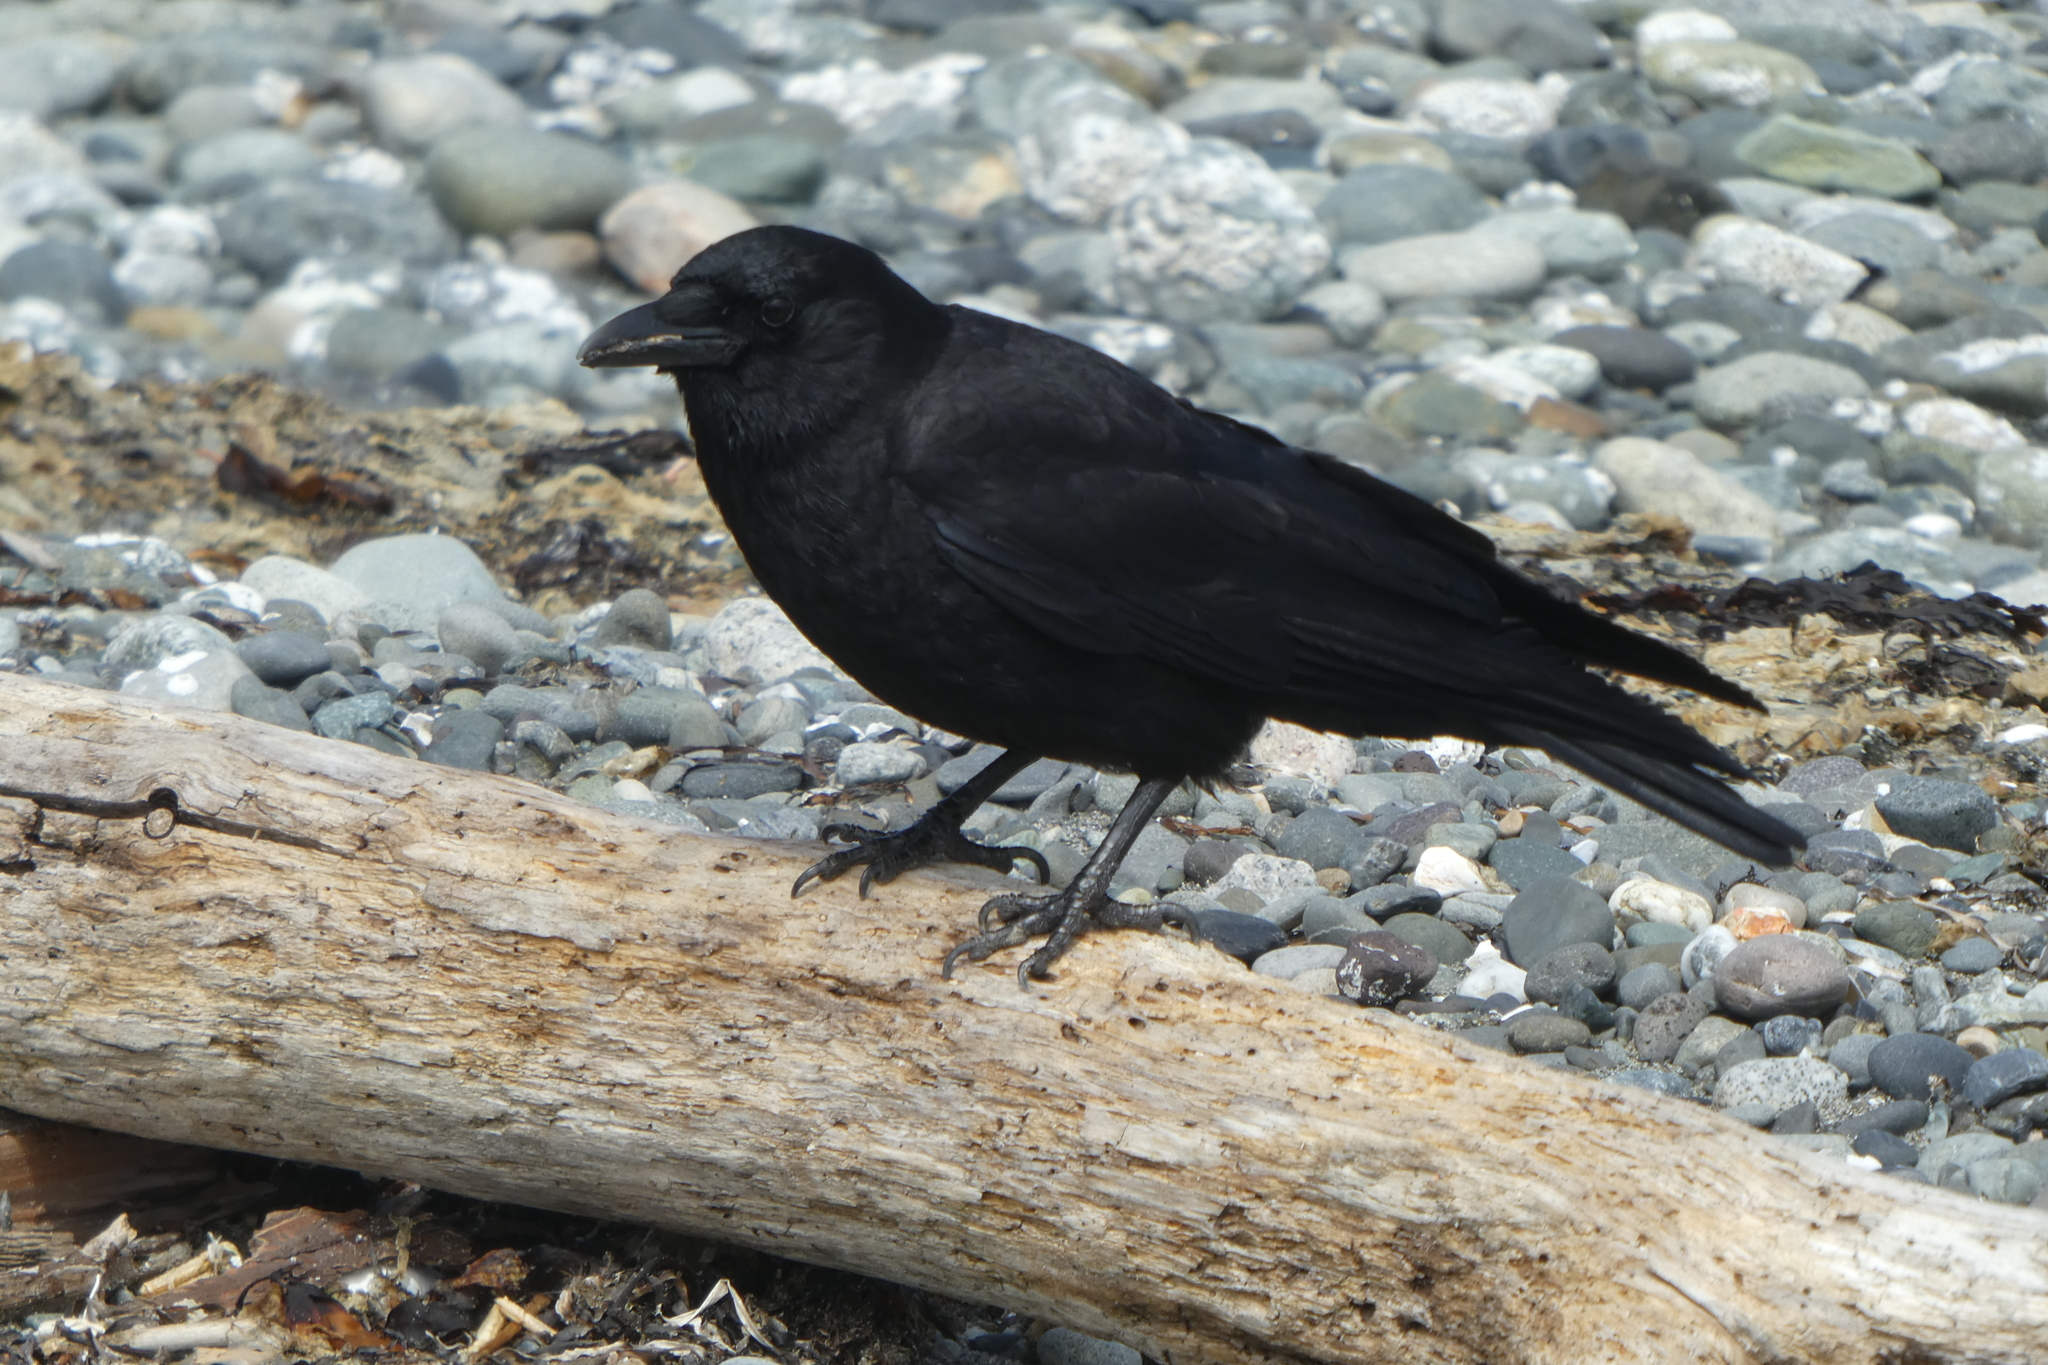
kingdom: Animalia
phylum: Chordata
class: Aves
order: Passeriformes
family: Corvidae
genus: Corvus
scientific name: Corvus brachyrhynchos
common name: American crow
